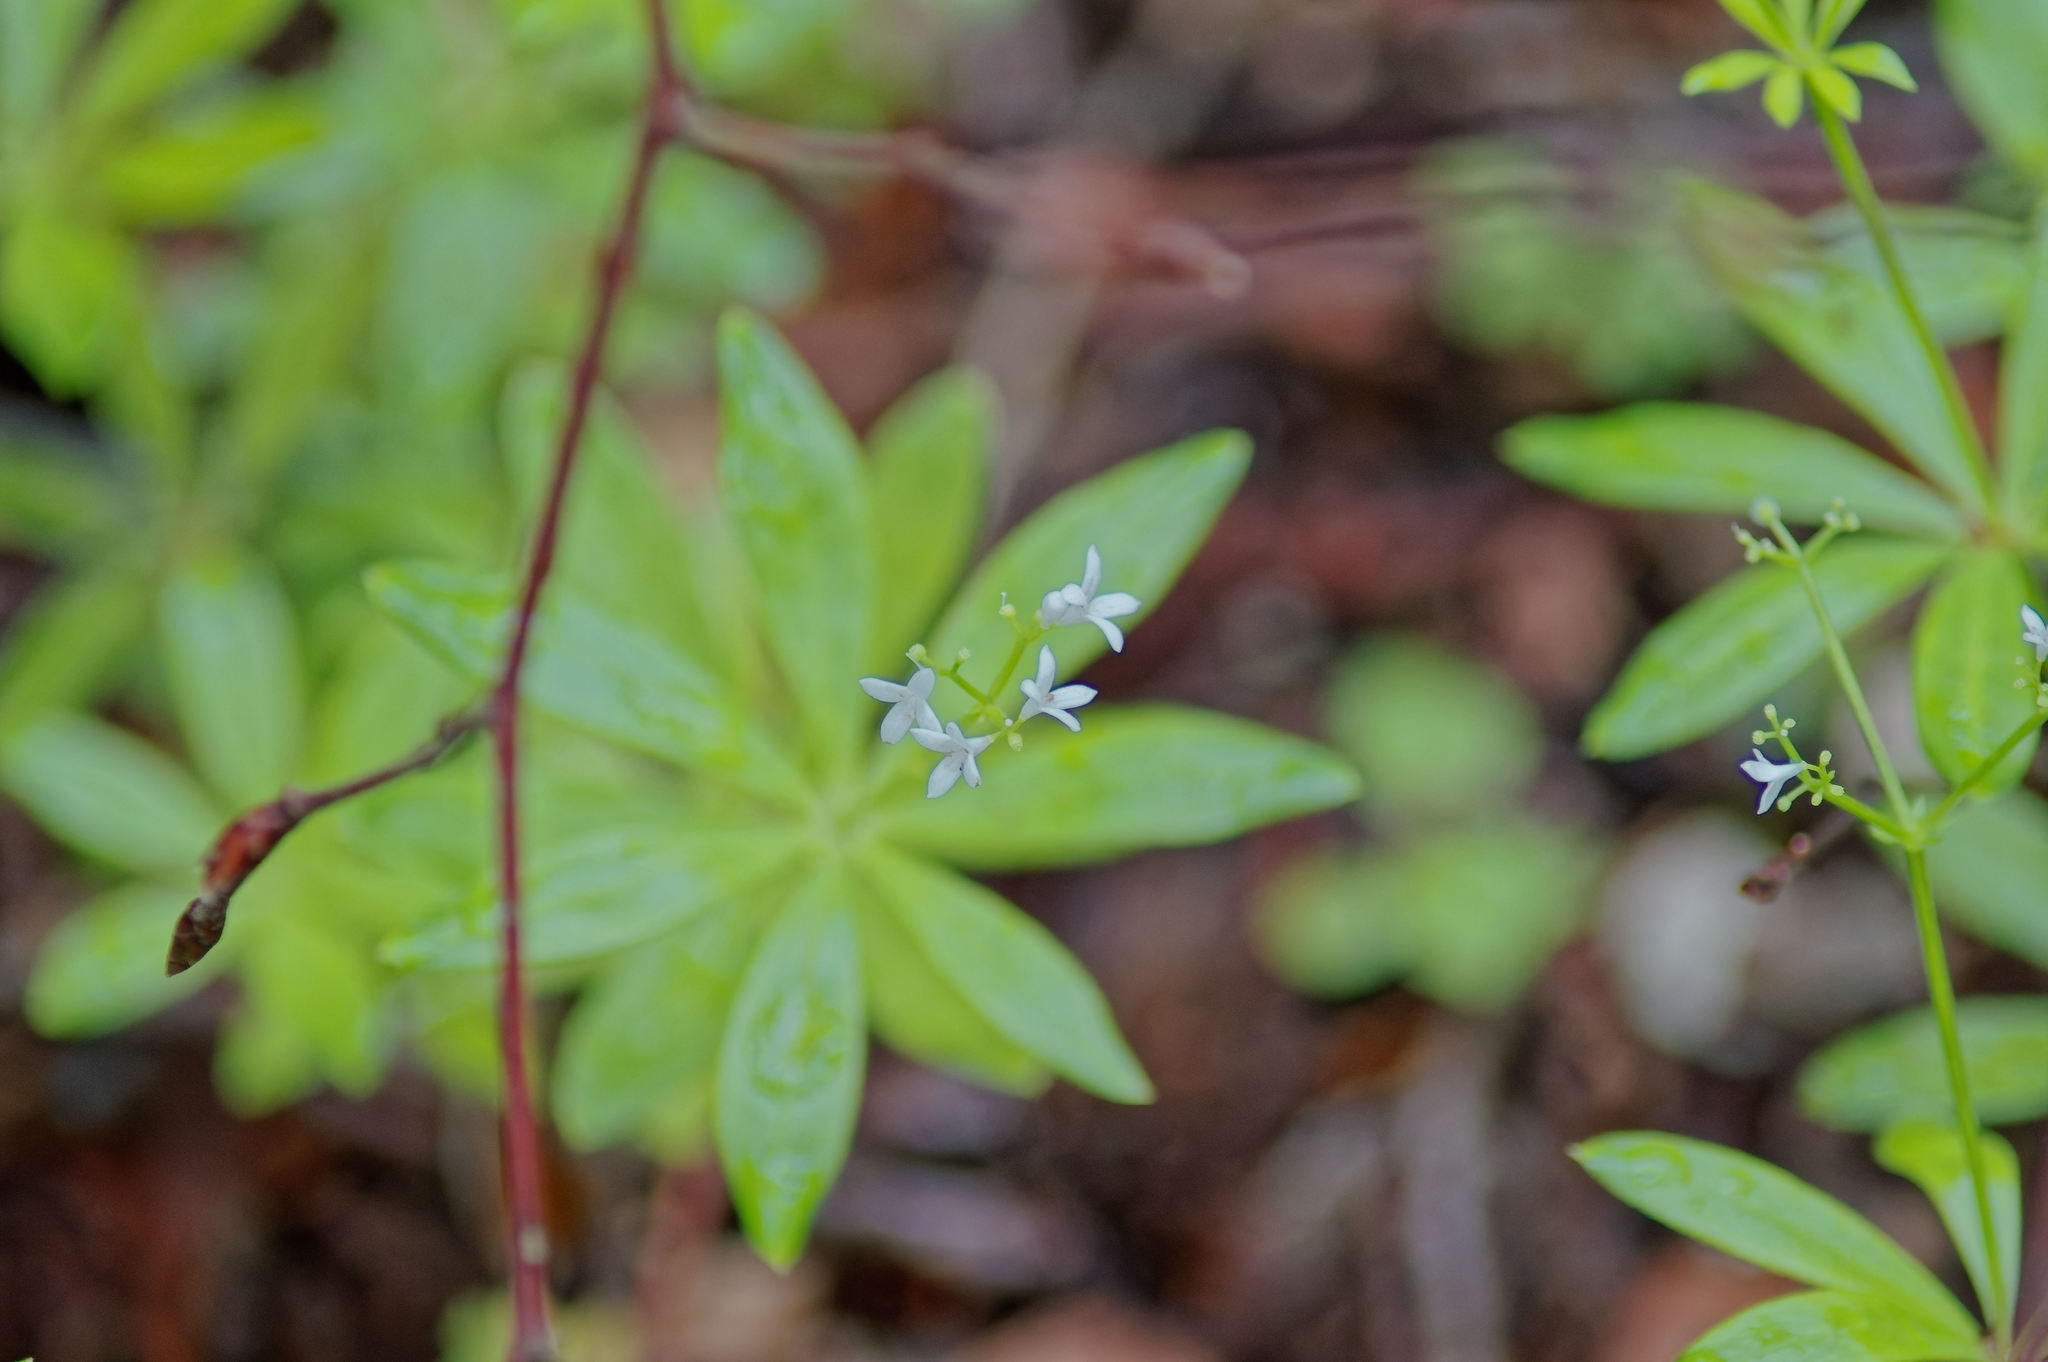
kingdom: Plantae
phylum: Tracheophyta
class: Magnoliopsida
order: Gentianales
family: Rubiaceae
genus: Galium
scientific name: Galium odoratum
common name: Sweet woodruff
